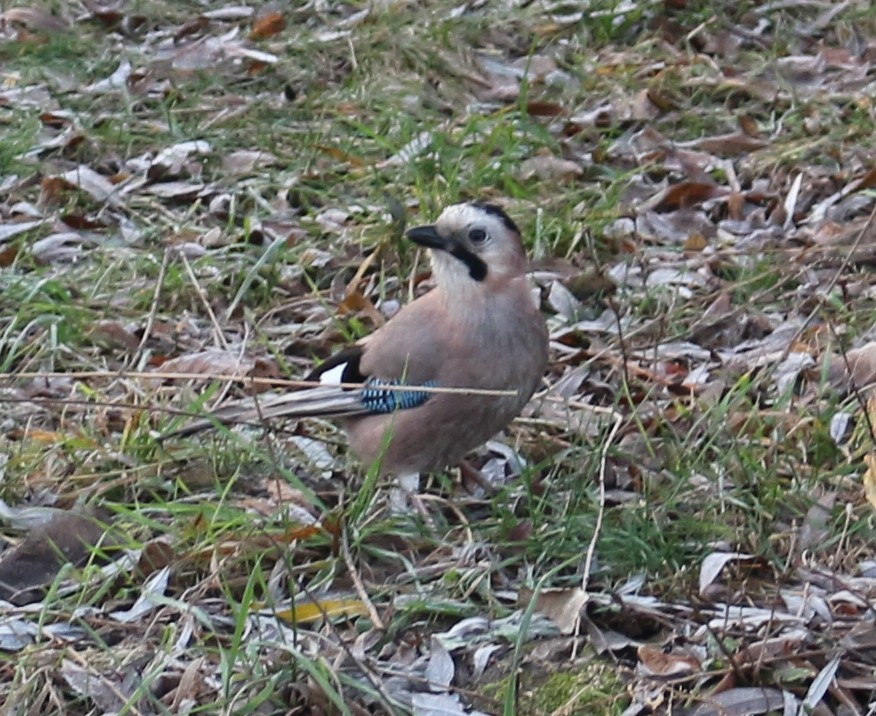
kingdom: Animalia
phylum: Chordata
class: Aves
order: Passeriformes
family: Corvidae
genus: Garrulus
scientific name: Garrulus glandarius
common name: Eurasian jay
